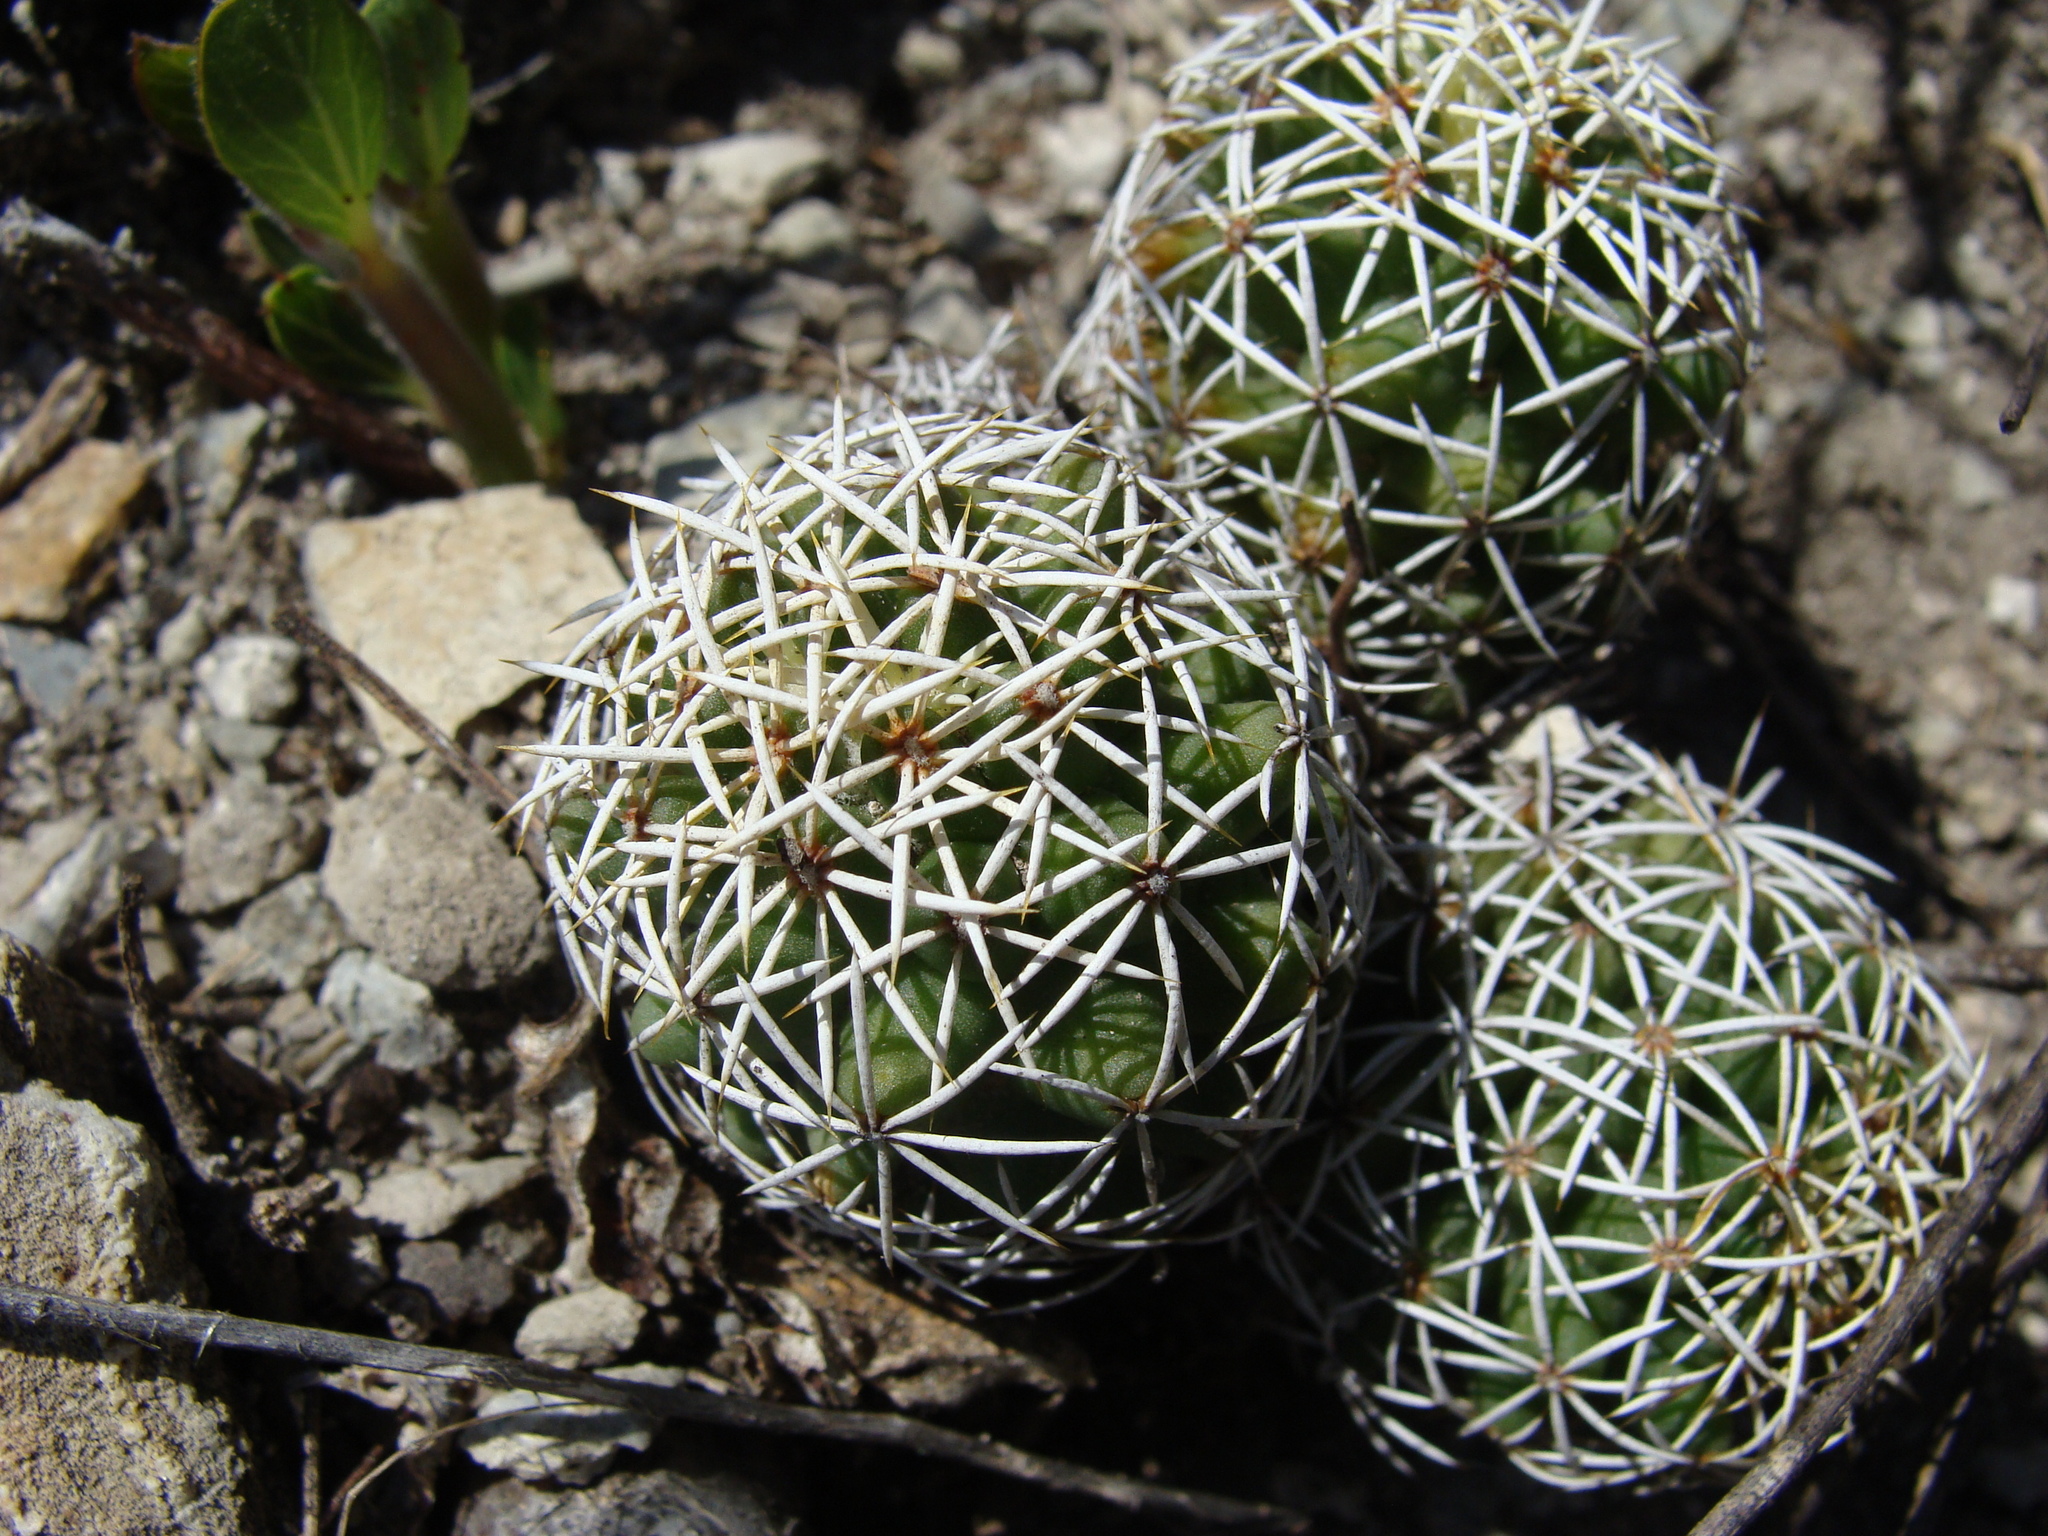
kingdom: Plantae
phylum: Tracheophyta
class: Magnoliopsida
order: Caryophyllales
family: Cactaceae
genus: Coryphantha
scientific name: Coryphantha clavata
